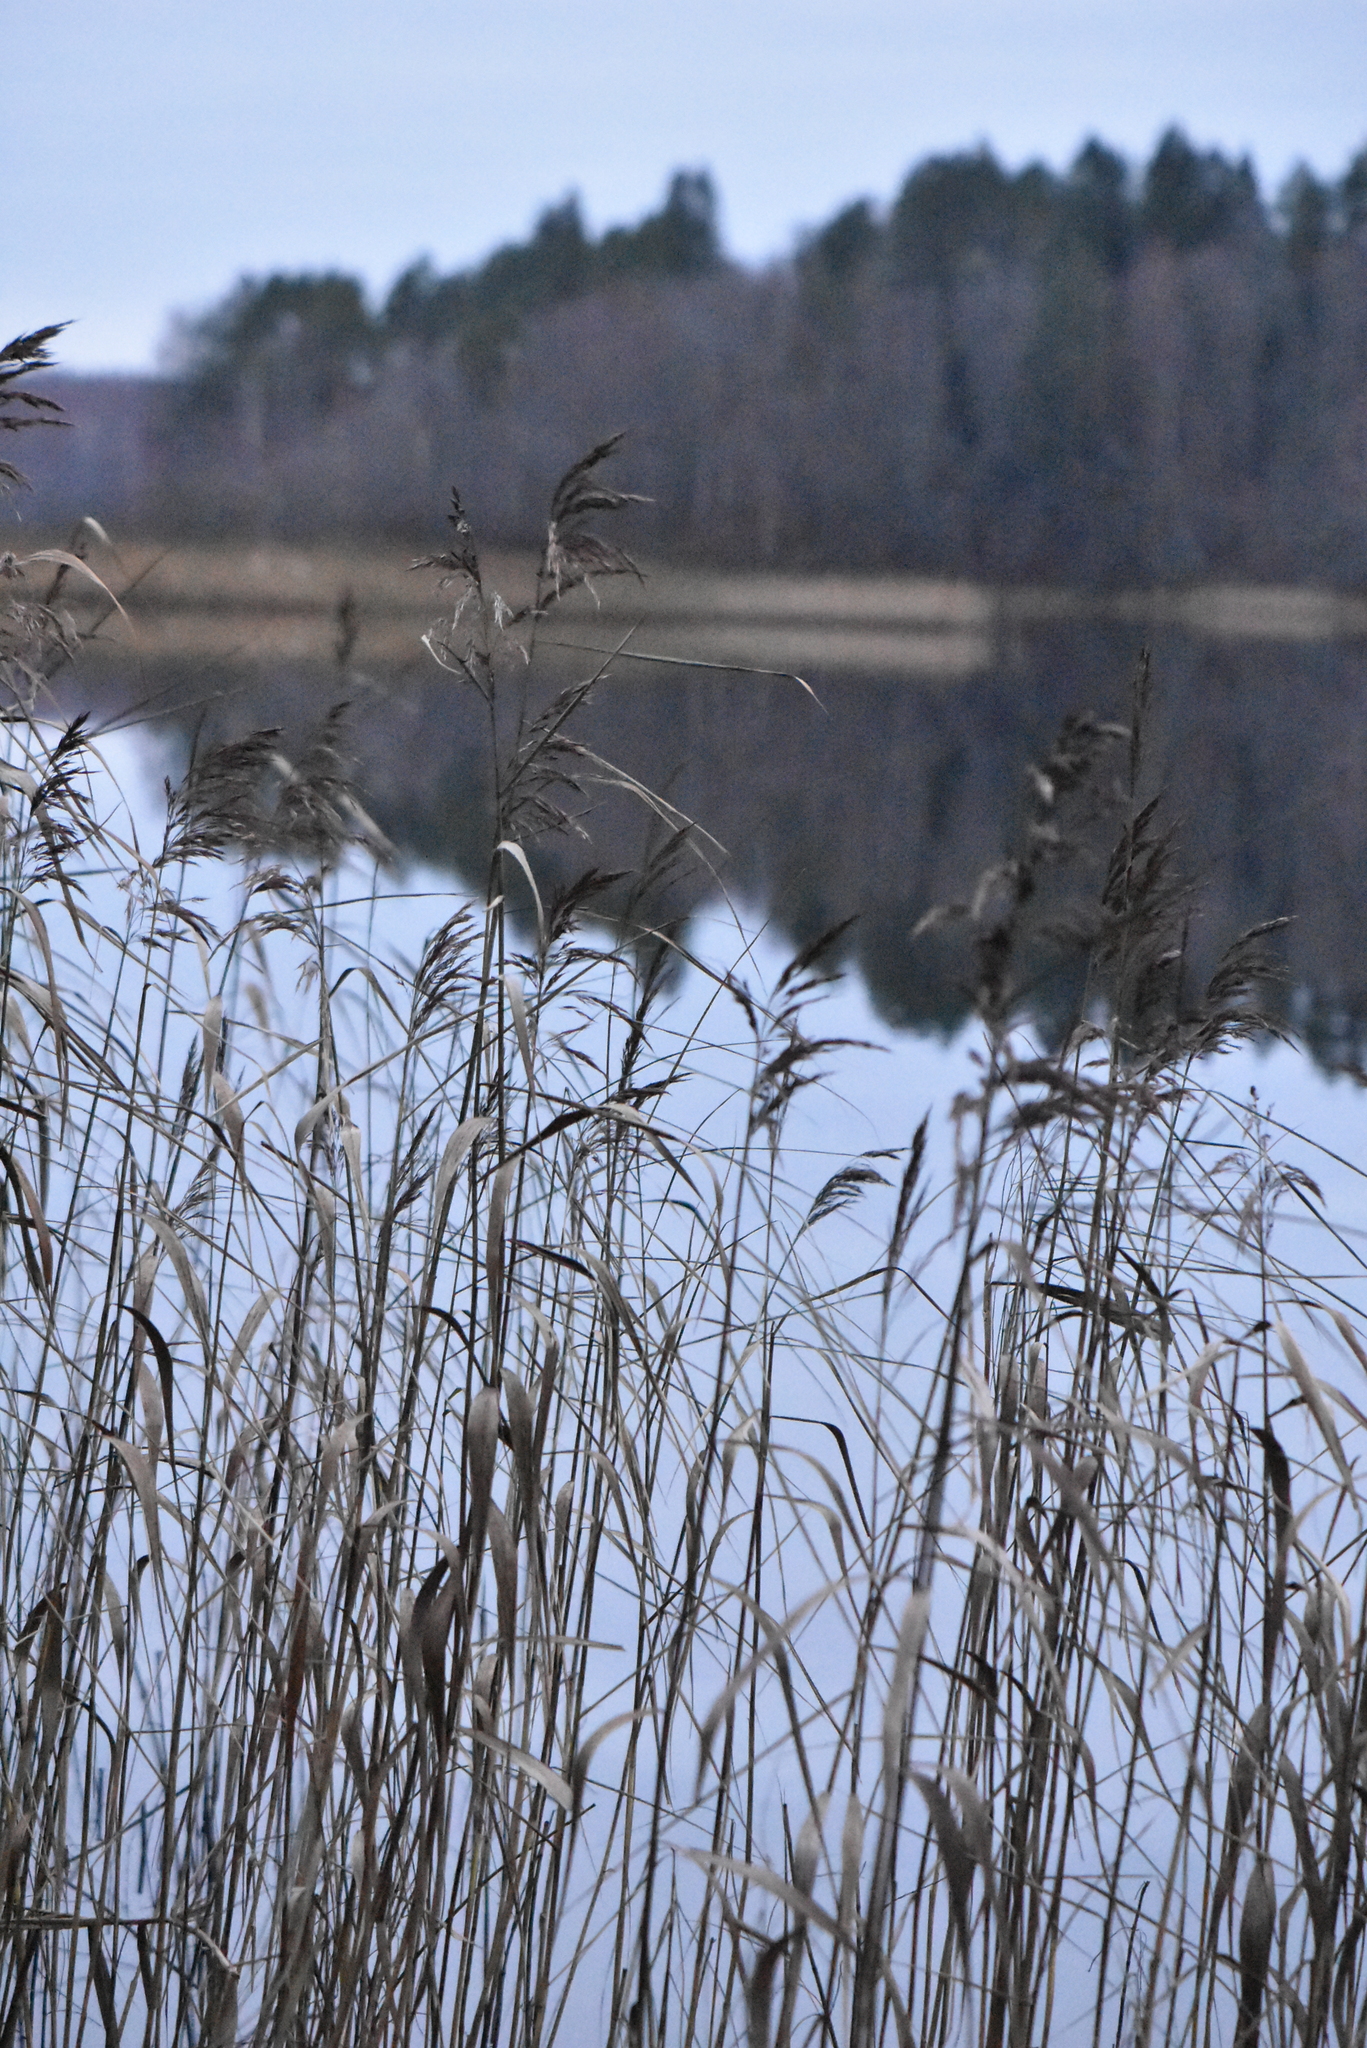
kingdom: Plantae
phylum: Tracheophyta
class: Liliopsida
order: Poales
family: Poaceae
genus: Phragmites
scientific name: Phragmites australis
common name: Common reed
